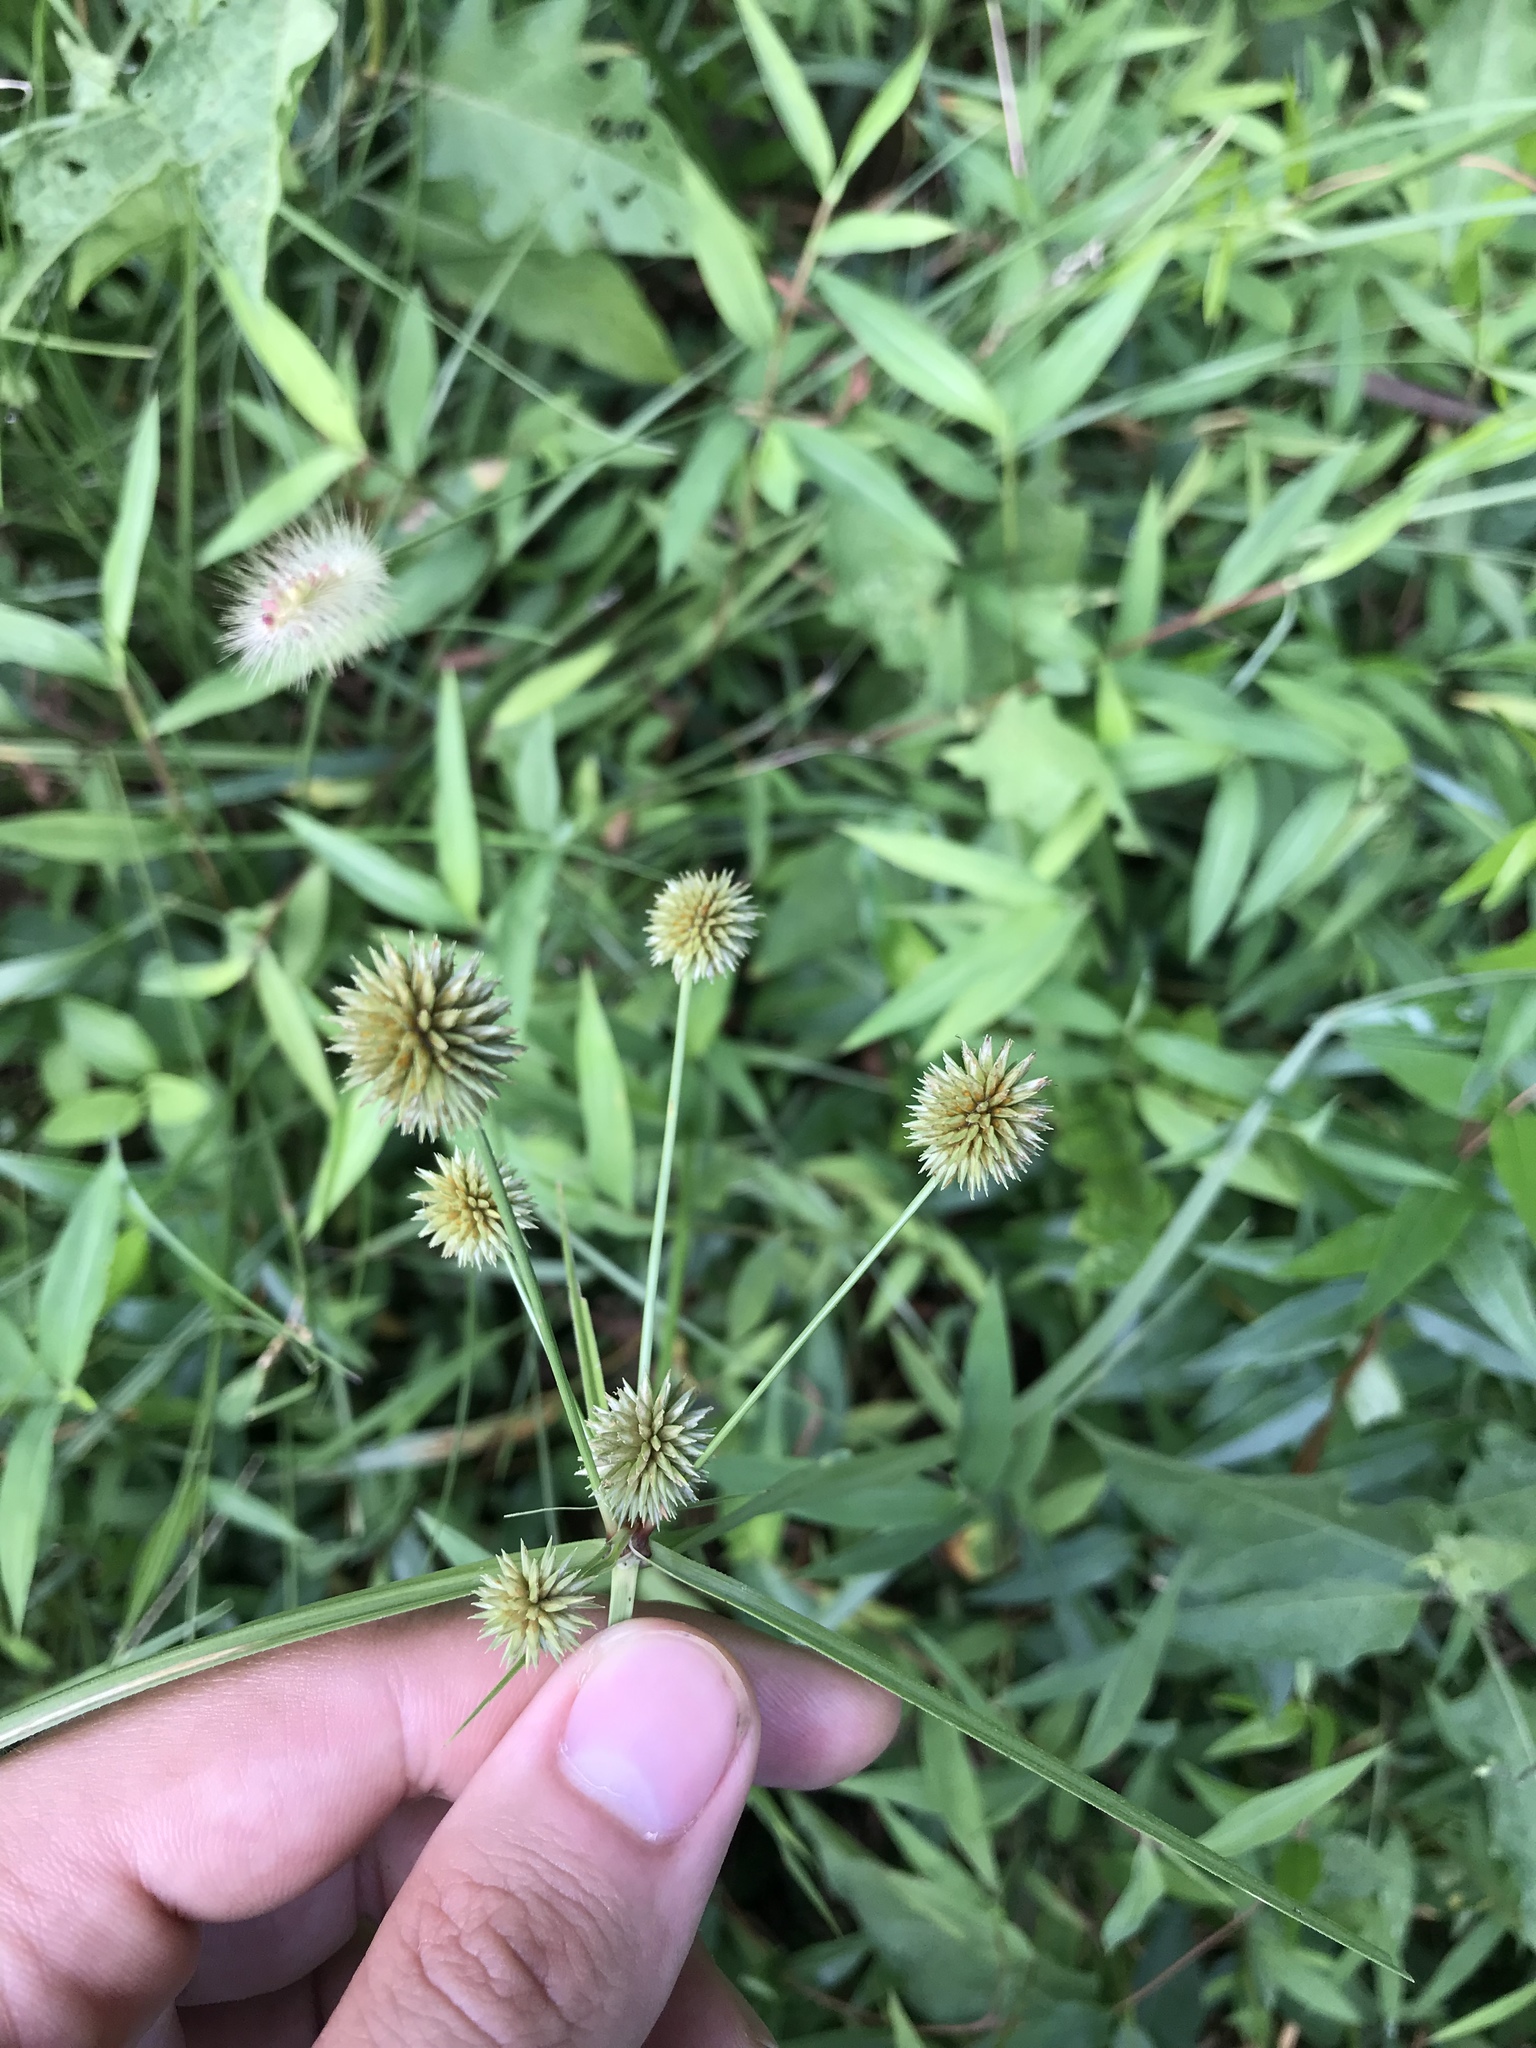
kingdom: Plantae
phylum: Tracheophyta
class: Liliopsida
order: Poales
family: Cyperaceae
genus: Cyperus
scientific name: Cyperus echinatus
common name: Teasel sedge
